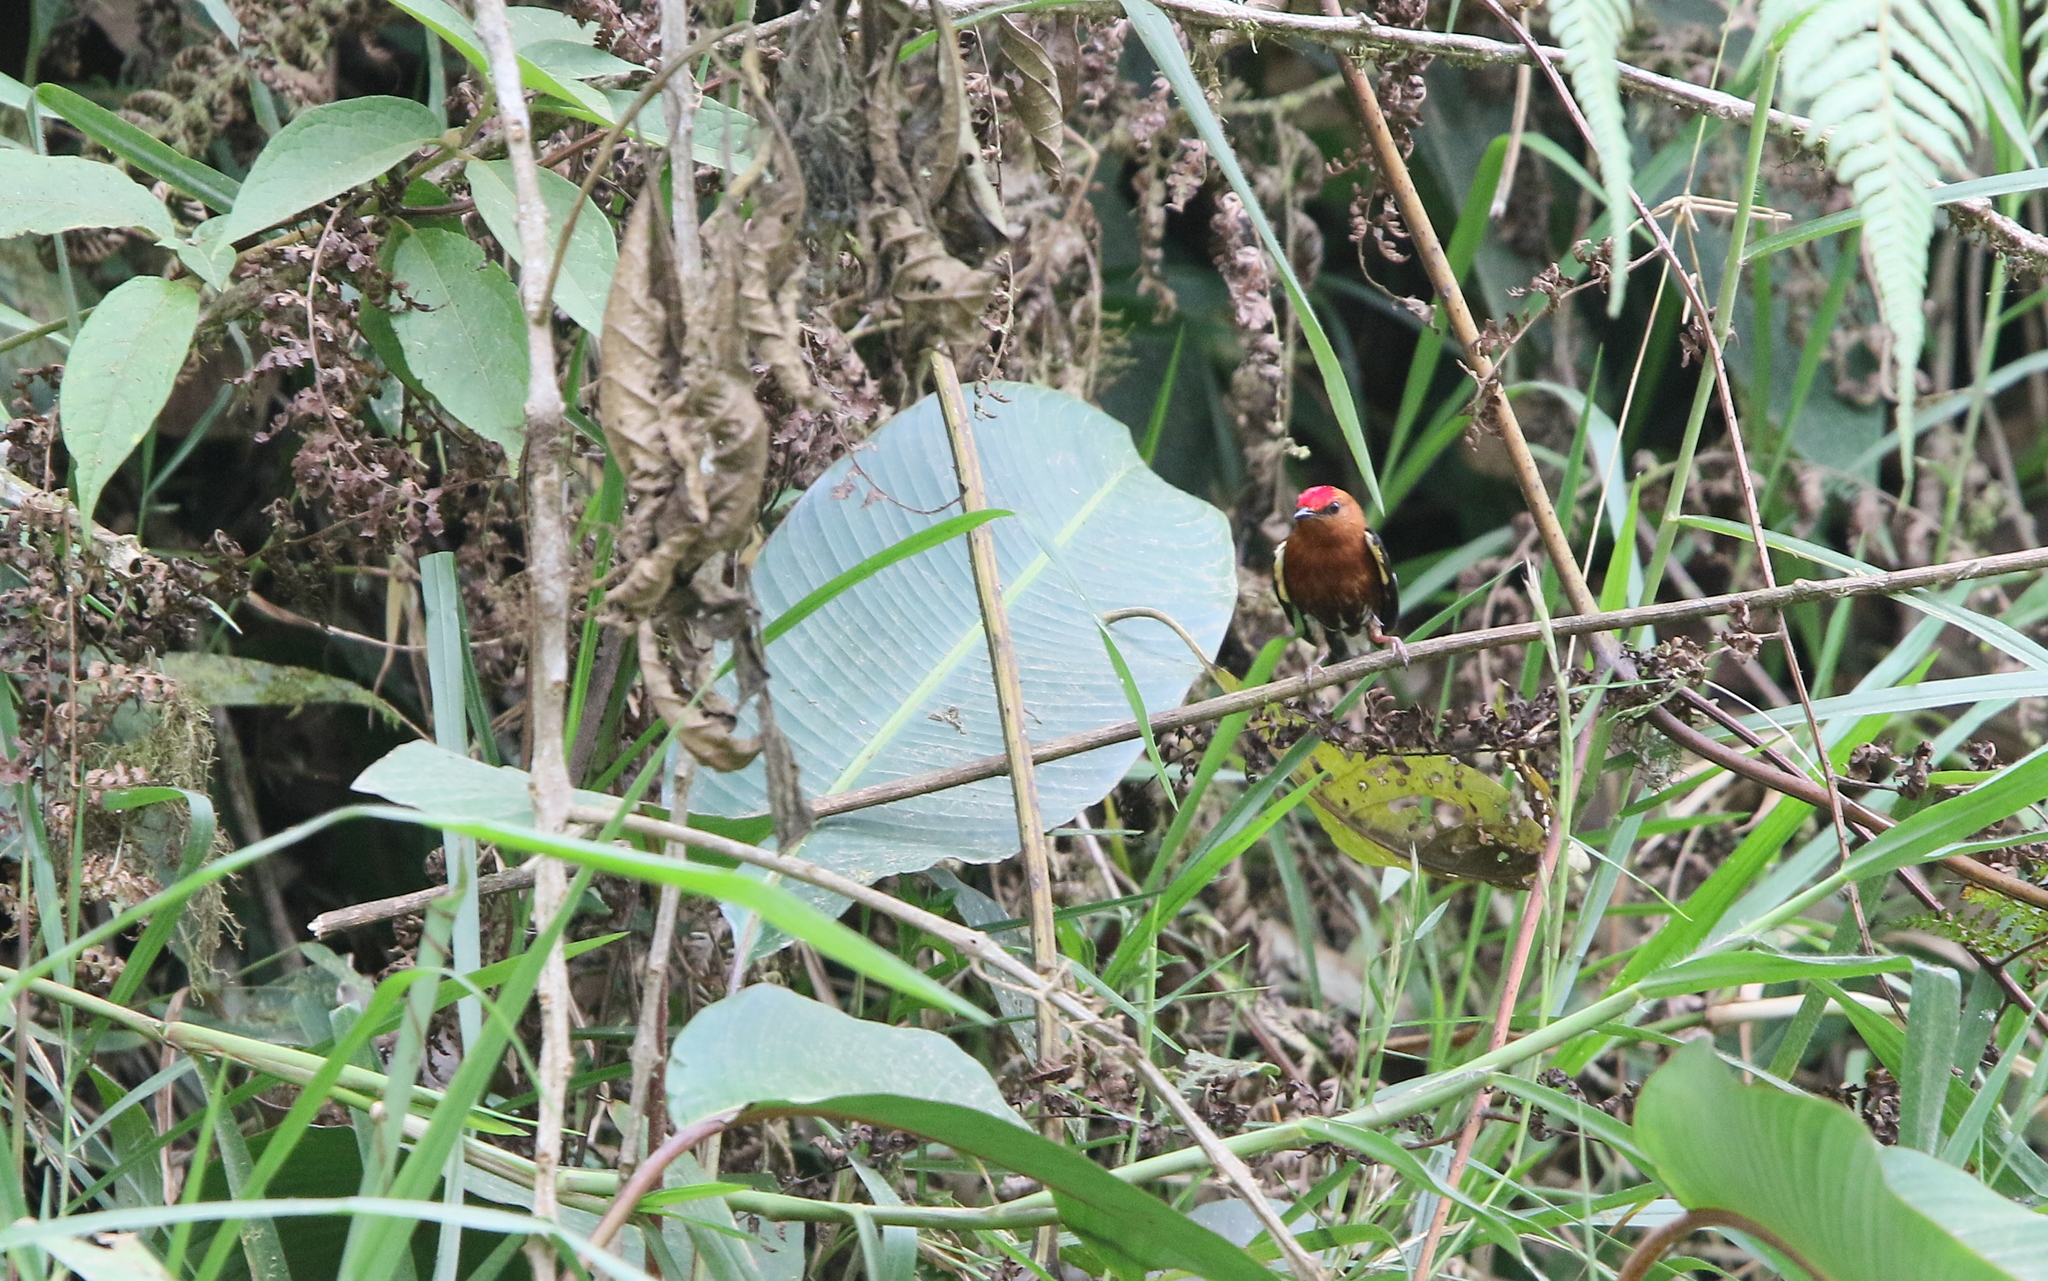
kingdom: Animalia
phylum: Chordata
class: Aves
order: Passeriformes
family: Pipridae
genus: Machaeropterus
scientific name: Machaeropterus deliciosus
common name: Club-winged manakin
